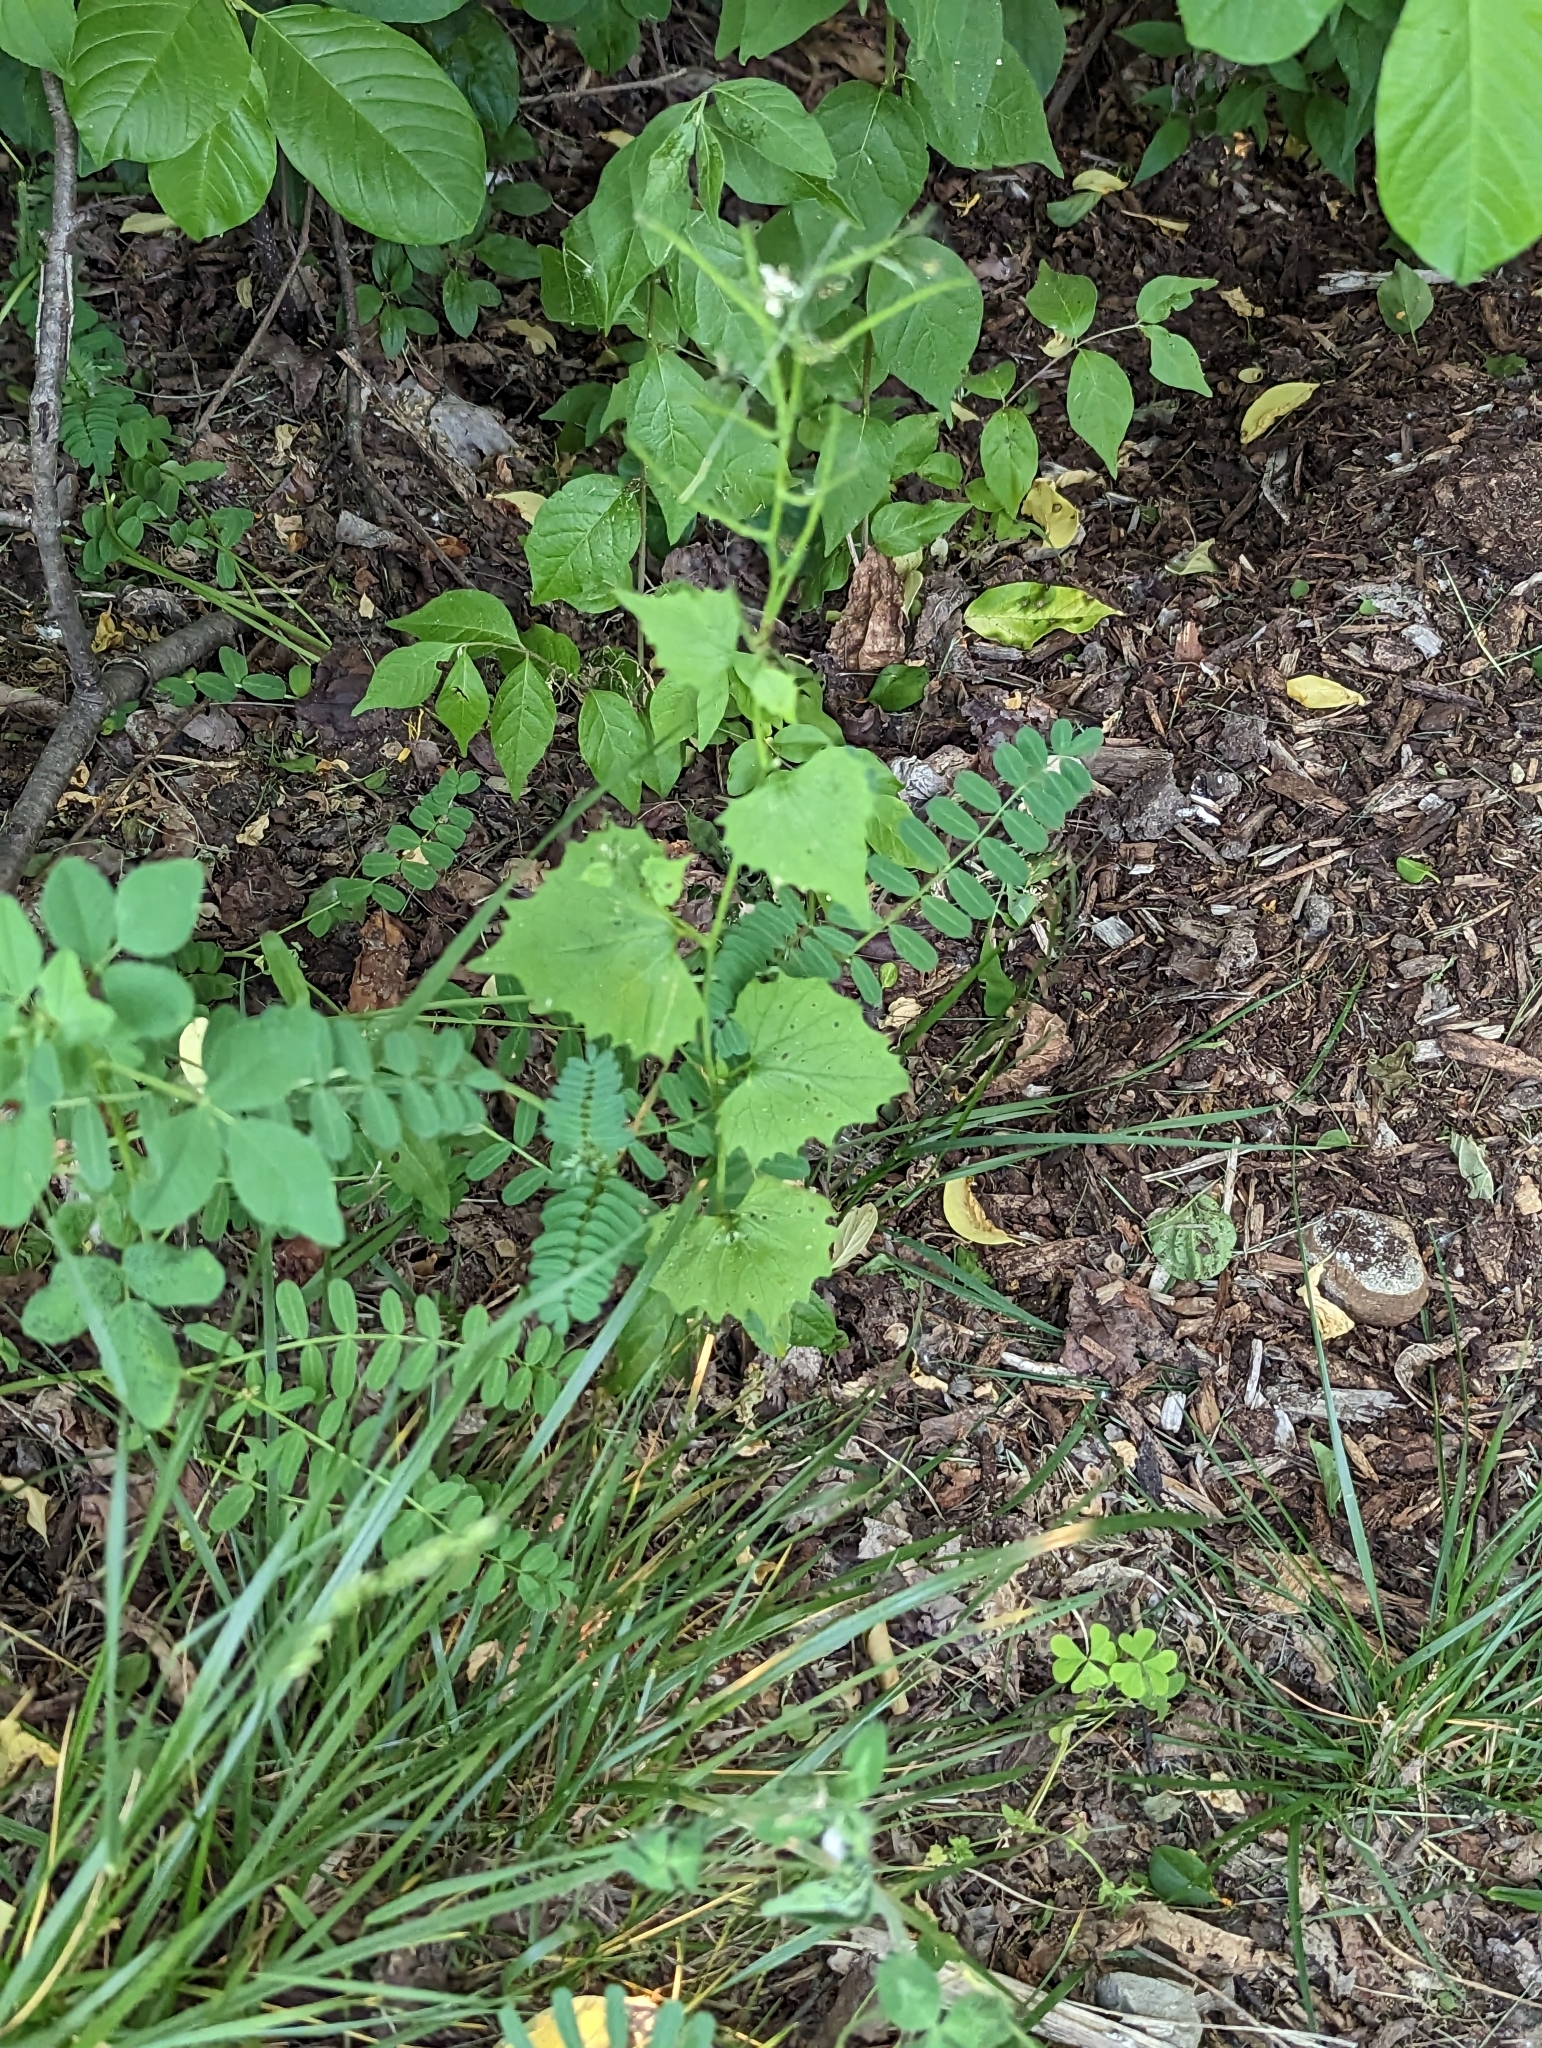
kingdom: Plantae
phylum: Tracheophyta
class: Magnoliopsida
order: Brassicales
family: Brassicaceae
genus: Alliaria
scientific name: Alliaria petiolata
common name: Garlic mustard
